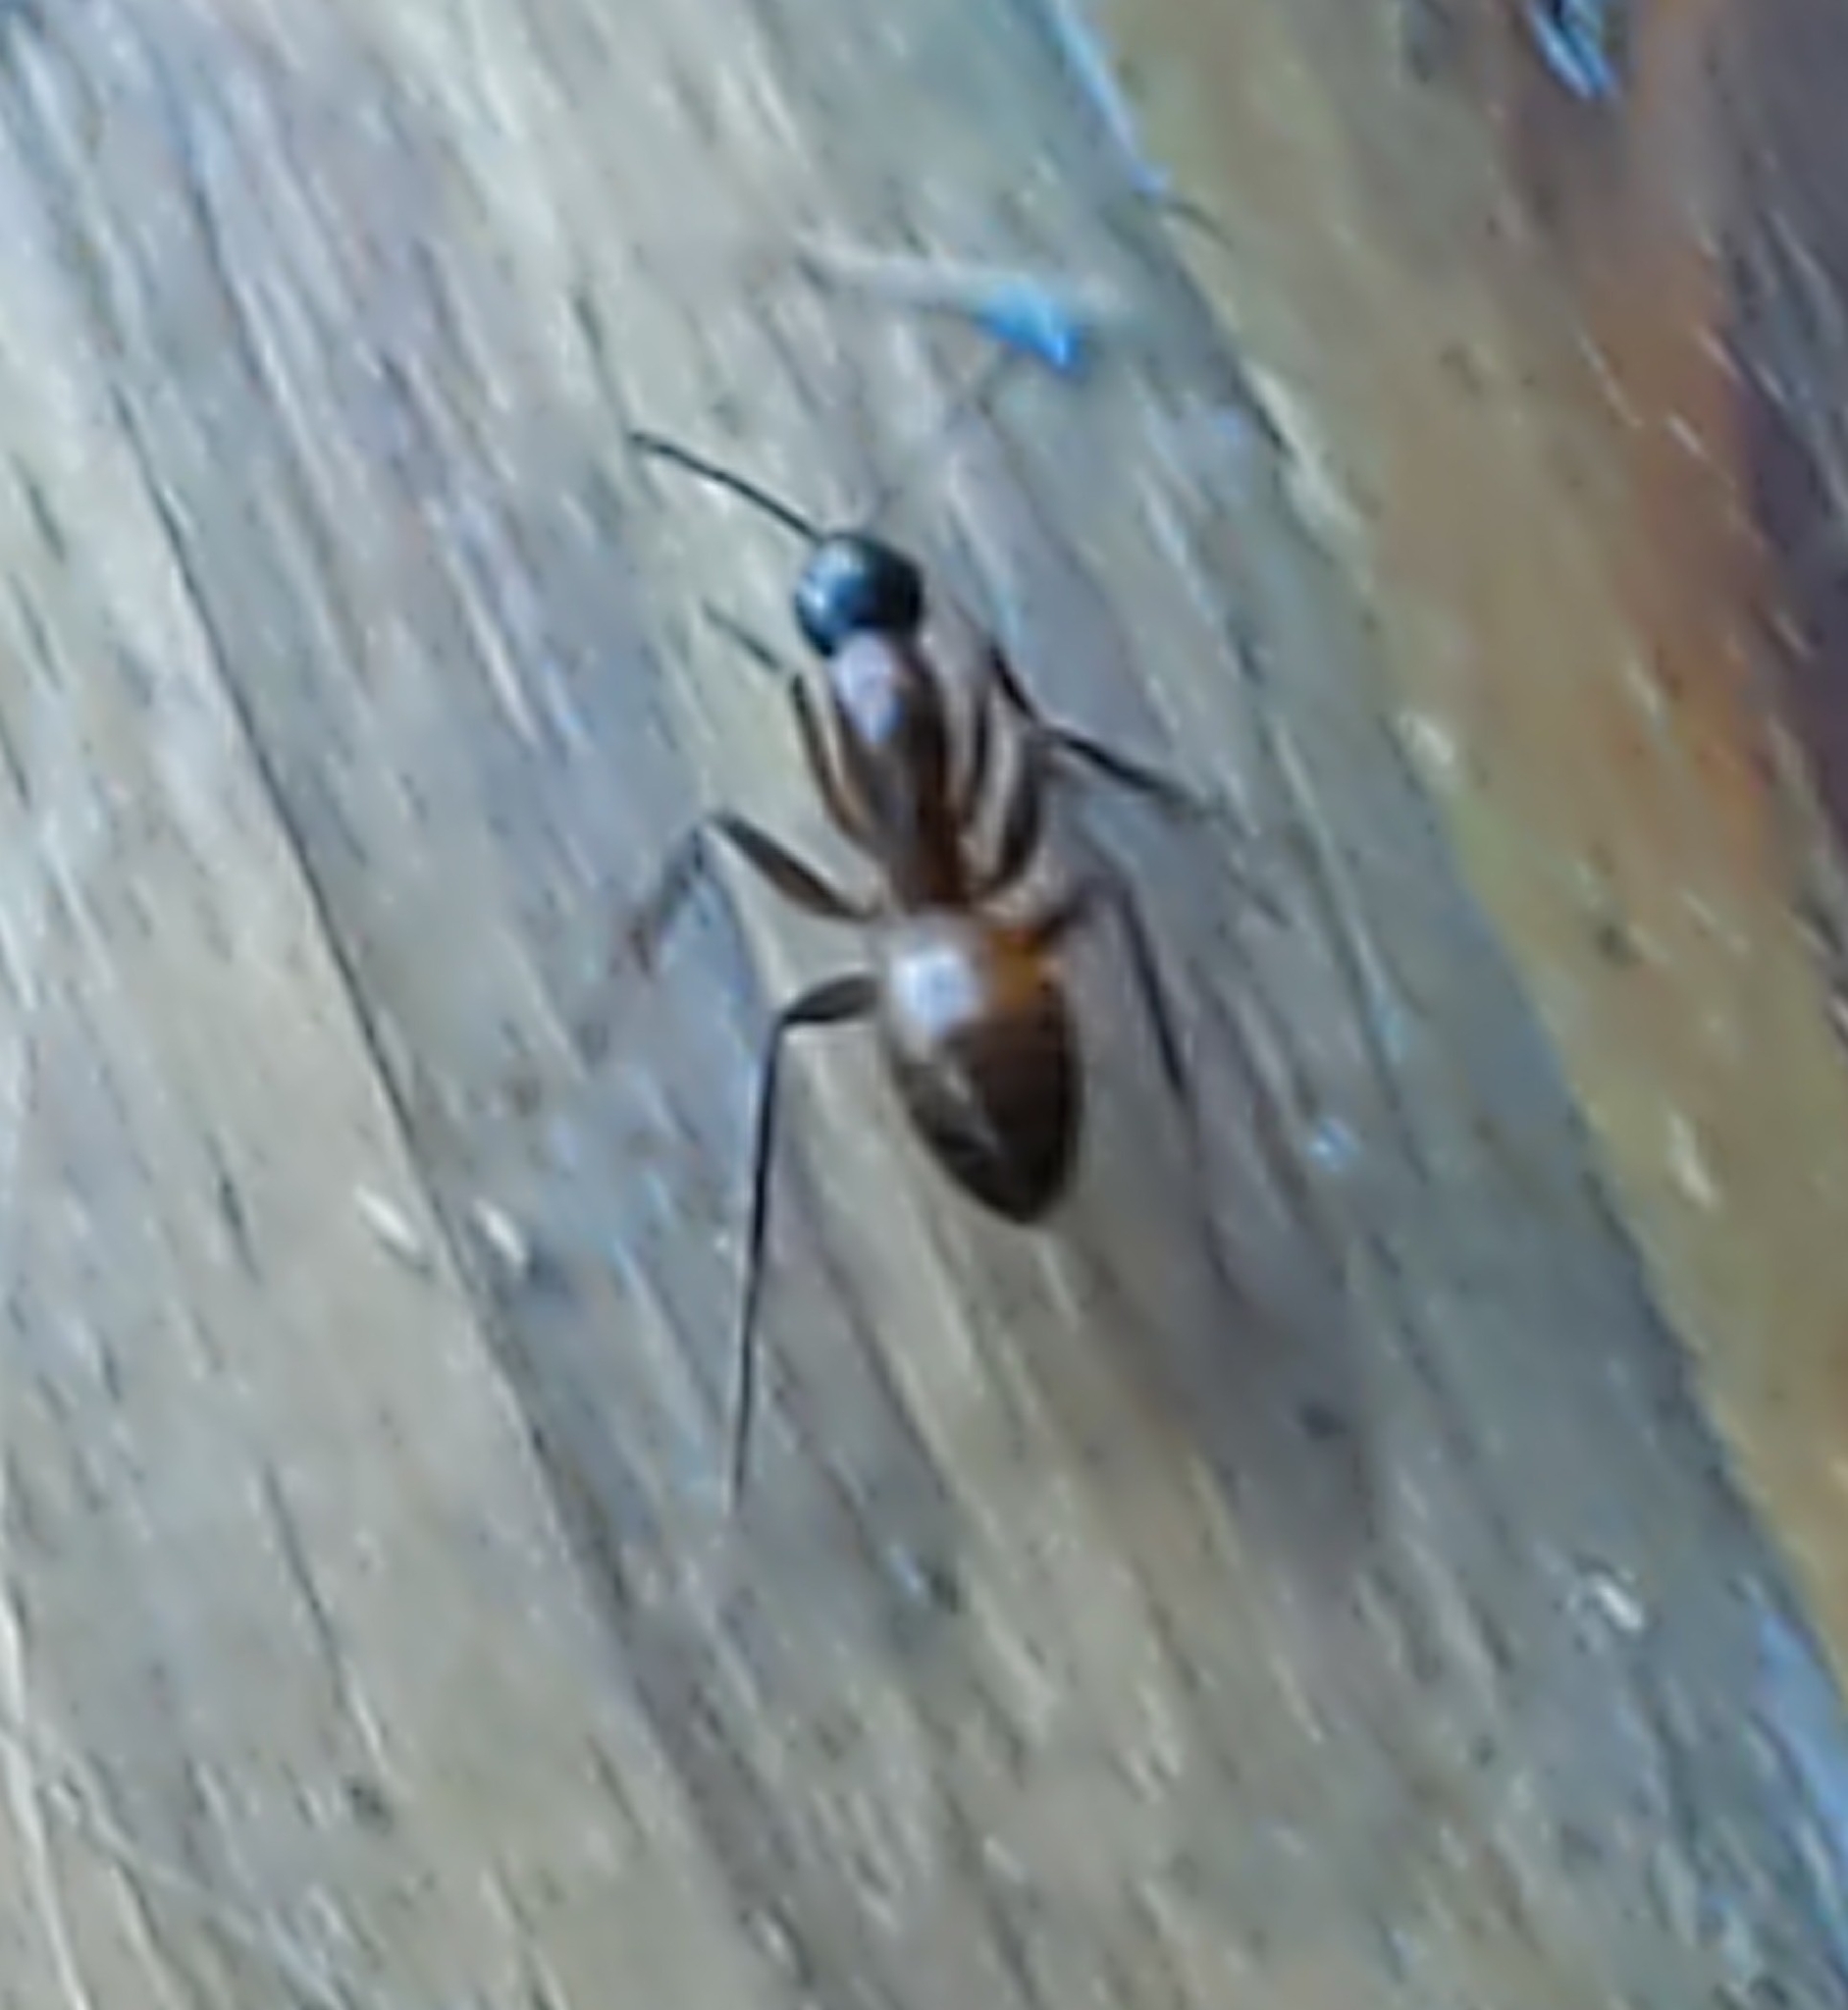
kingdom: Animalia
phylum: Arthropoda
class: Insecta
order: Hymenoptera
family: Formicidae
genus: Camponotus
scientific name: Camponotus americanus
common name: American carpenter ant
